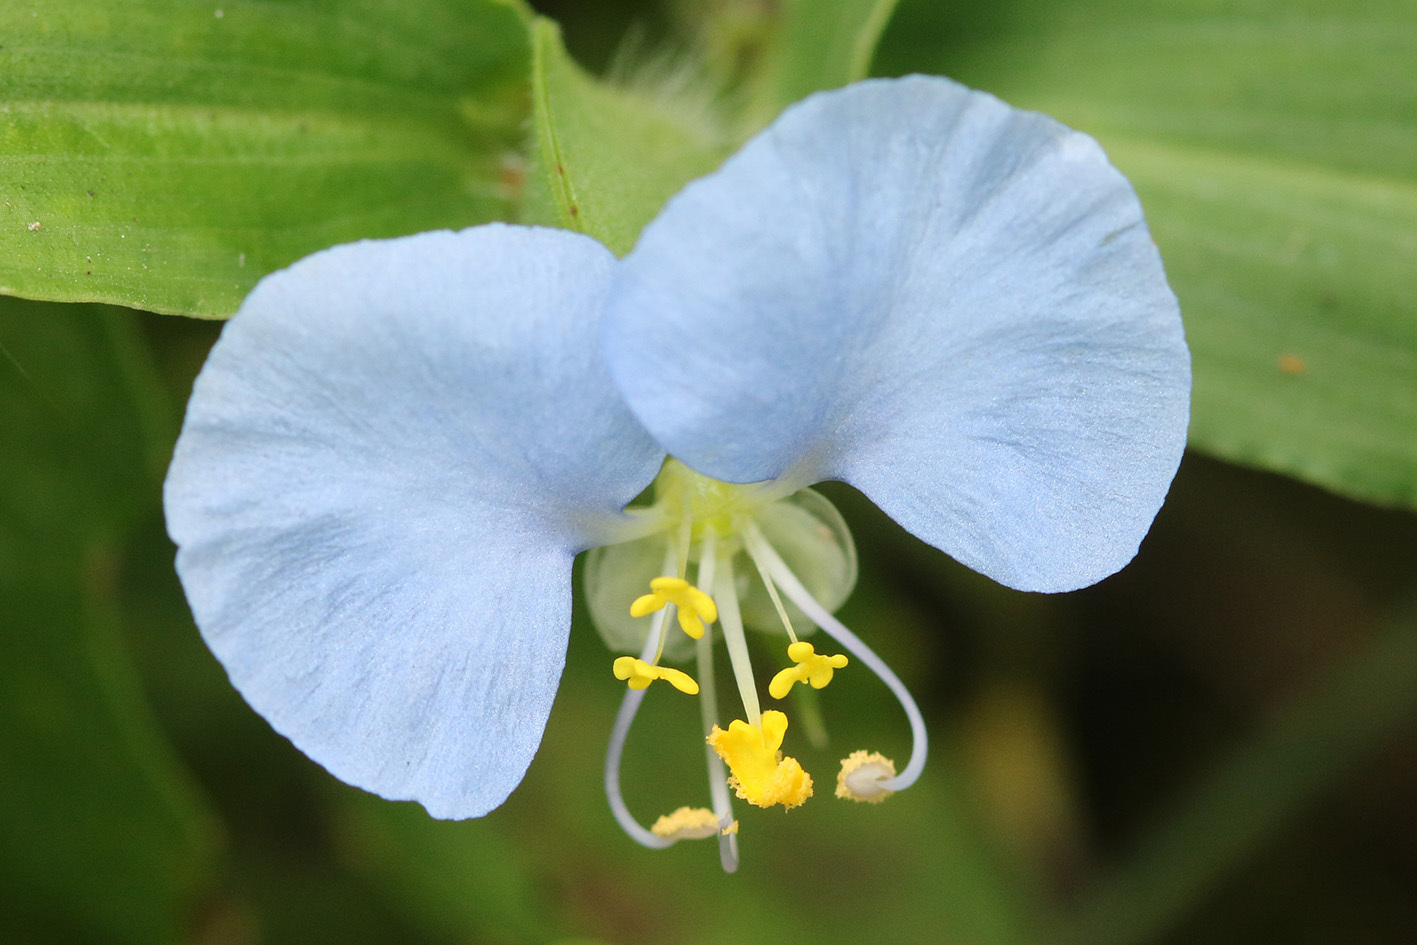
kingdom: Plantae
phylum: Tracheophyta
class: Liliopsida
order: Commelinales
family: Commelinaceae
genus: Commelina
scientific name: Commelina erecta
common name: Blousel blommetjie
